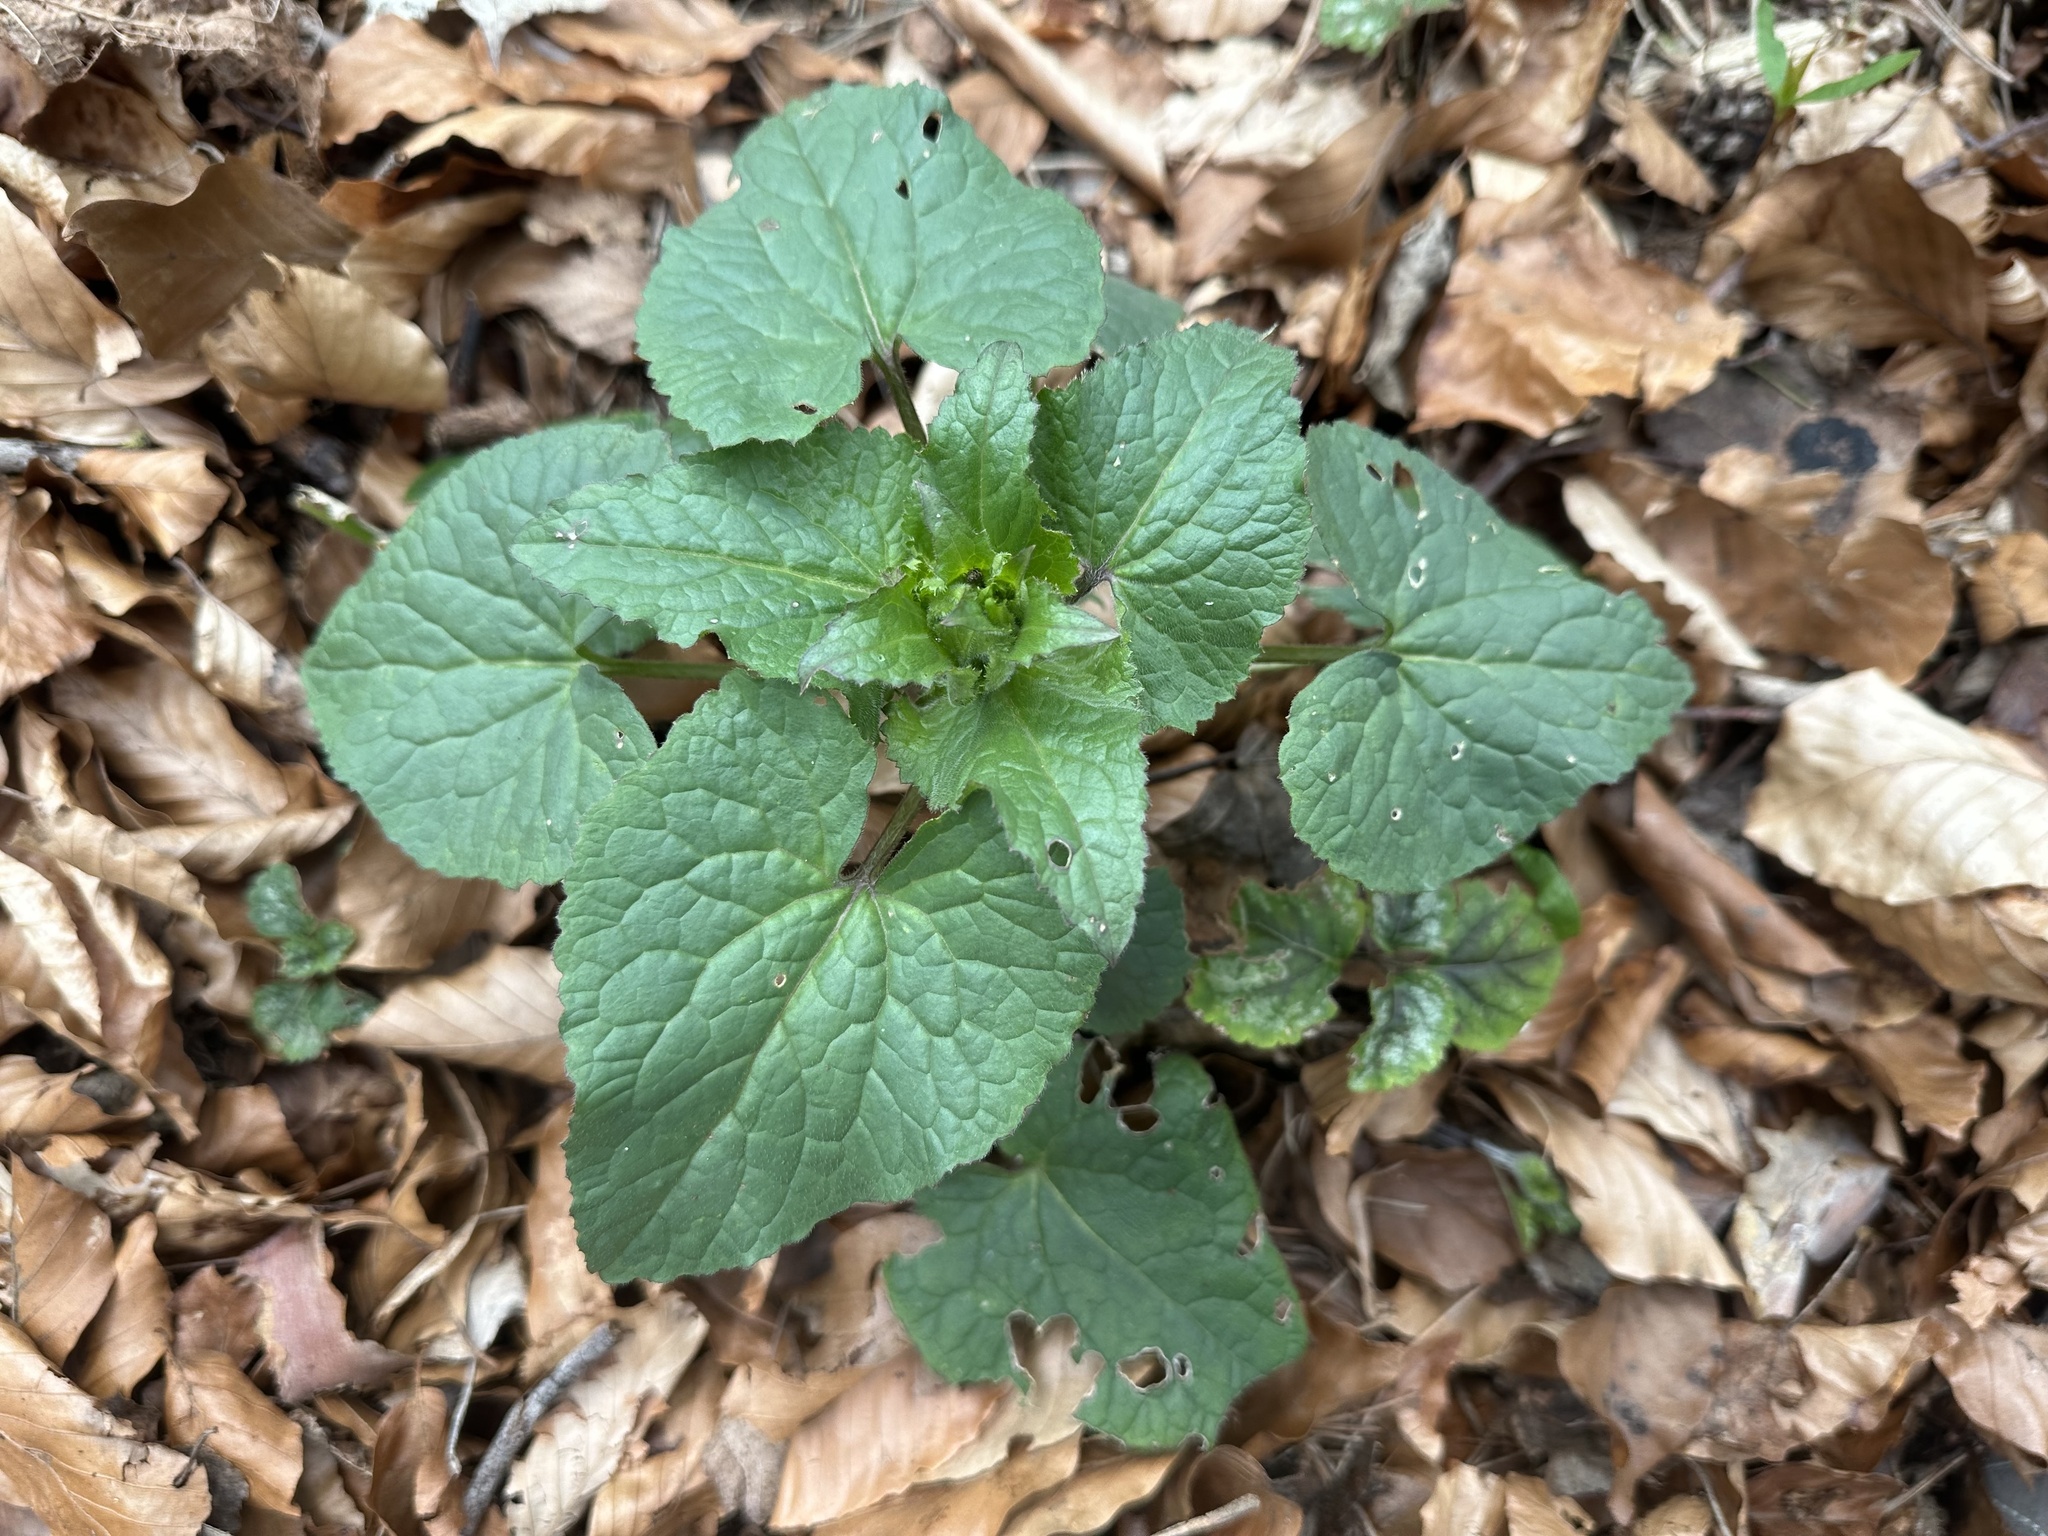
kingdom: Plantae
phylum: Tracheophyta
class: Magnoliopsida
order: Brassicales
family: Brassicaceae
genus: Lunaria
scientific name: Lunaria annua
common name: Honesty
